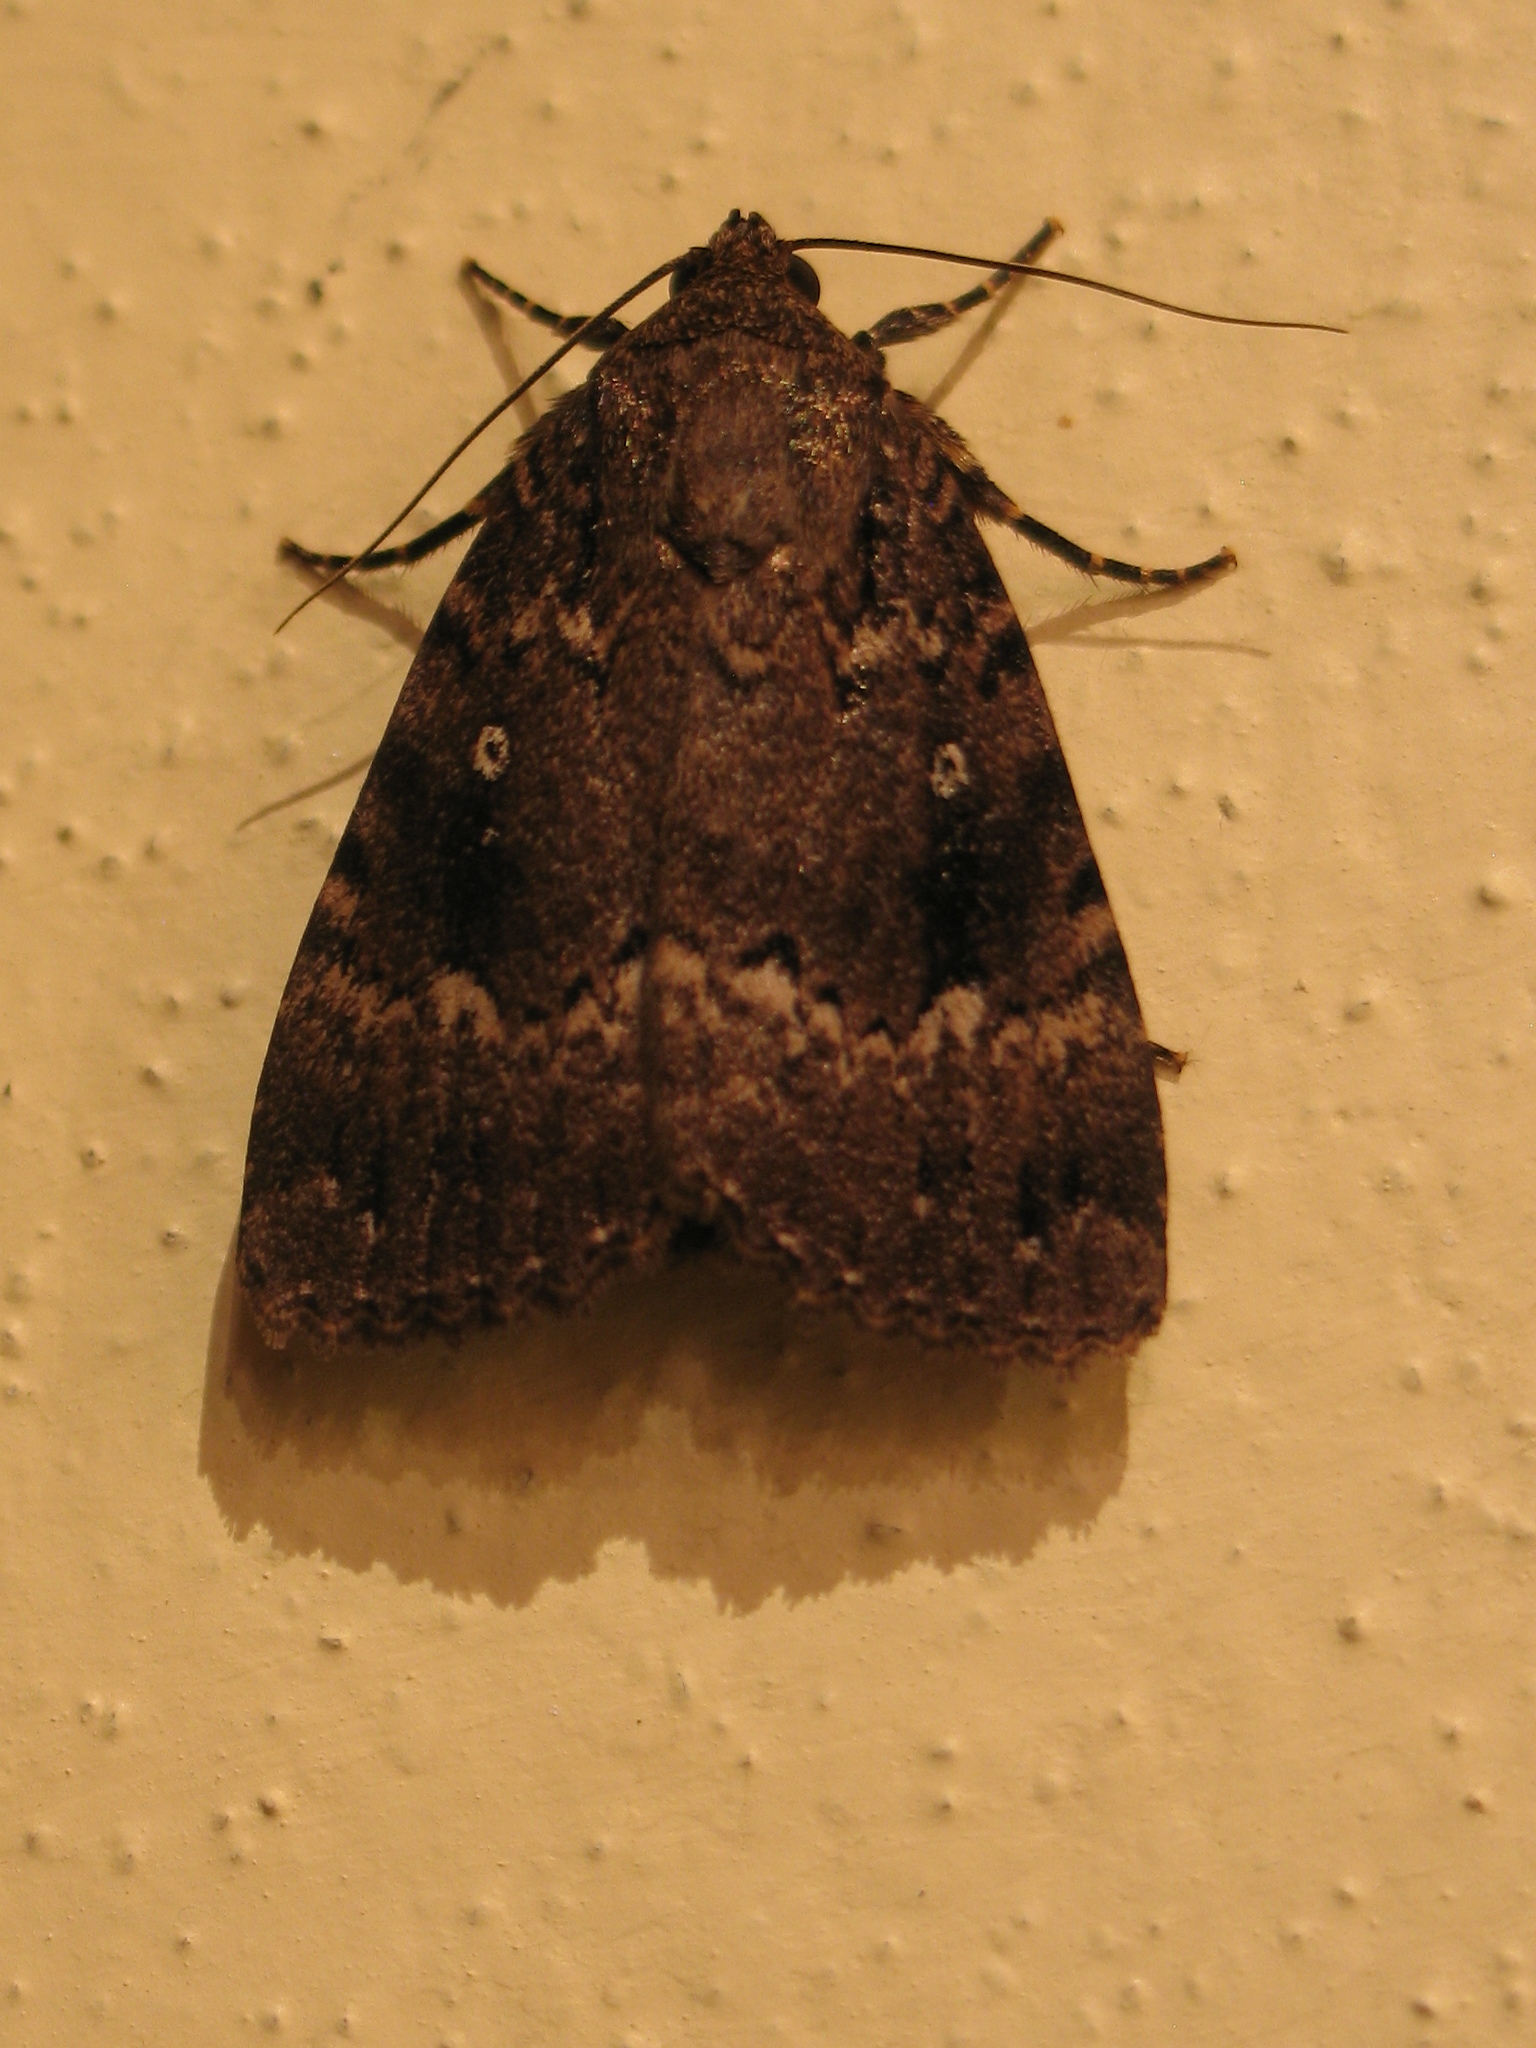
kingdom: Animalia
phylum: Arthropoda
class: Insecta
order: Lepidoptera
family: Noctuidae
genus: Amphipyra
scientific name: Amphipyra pyramidea
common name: Copper underwing
